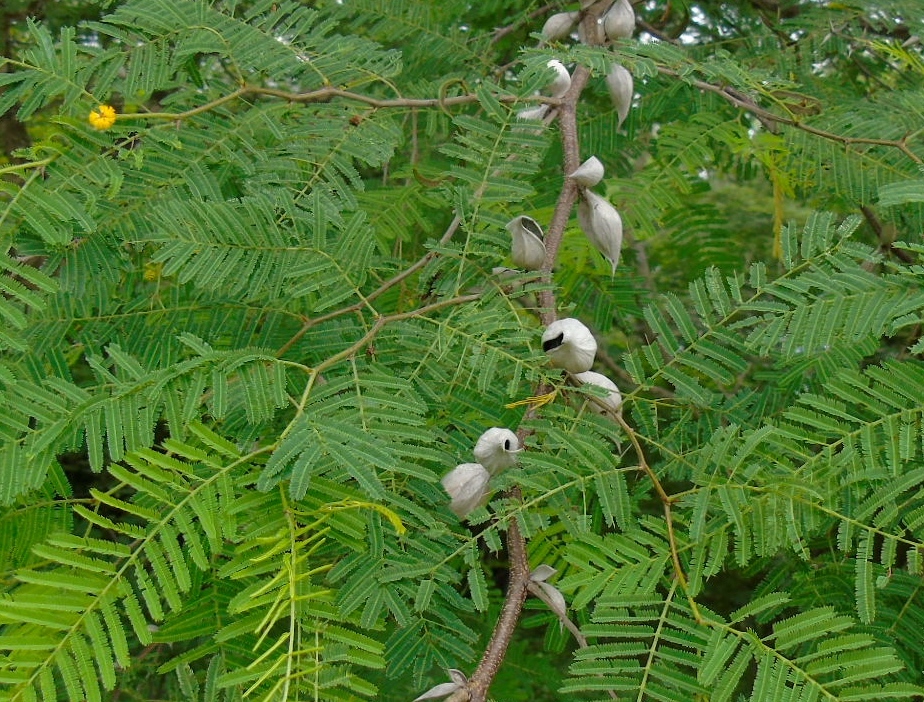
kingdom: Plantae
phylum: Tracheophyta
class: Magnoliopsida
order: Fabales
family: Fabaceae
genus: Vachellia
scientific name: Vachellia campechiana
